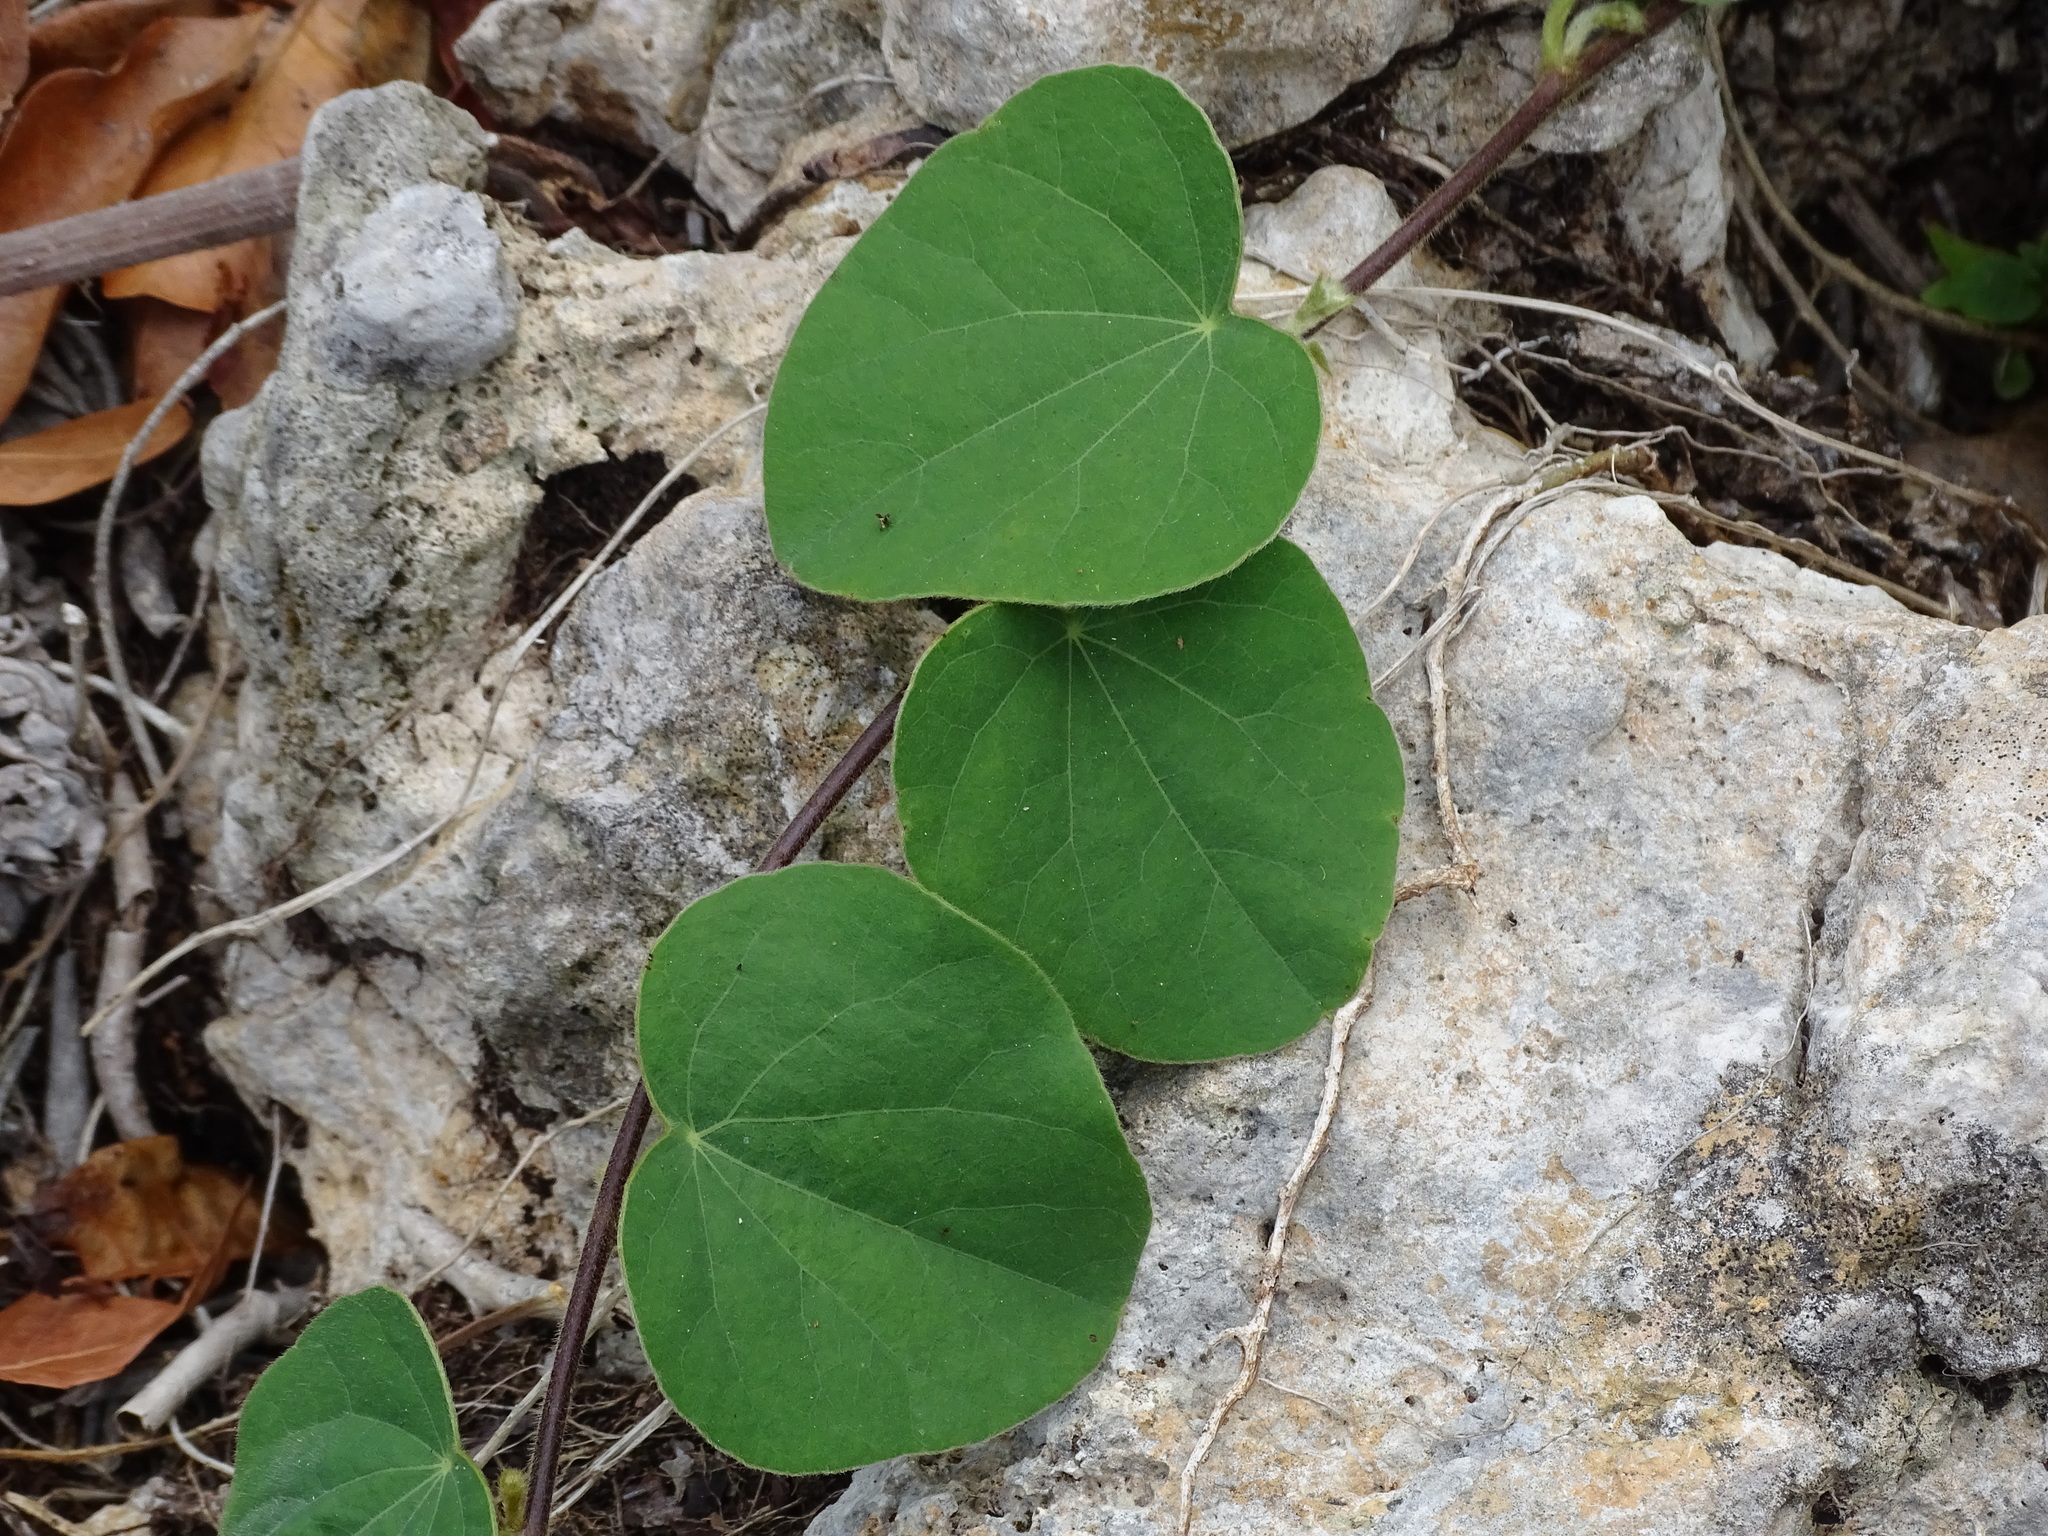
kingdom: Plantae
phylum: Tracheophyta
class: Magnoliopsida
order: Ranunculales
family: Menispermaceae
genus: Cissampelos
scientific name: Cissampelos pareira
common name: Velvetleaf
